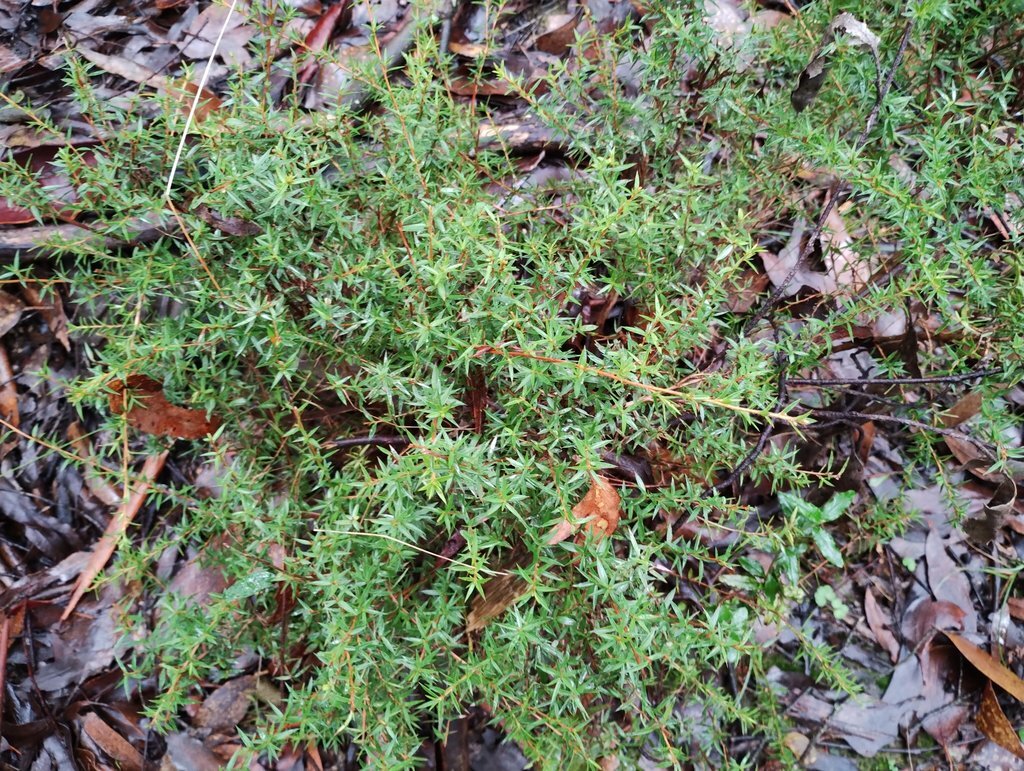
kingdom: Plantae
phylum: Tracheophyta
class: Magnoliopsida
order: Myrtales
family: Myrtaceae
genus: Leptospermum
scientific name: Leptospermum continentale
